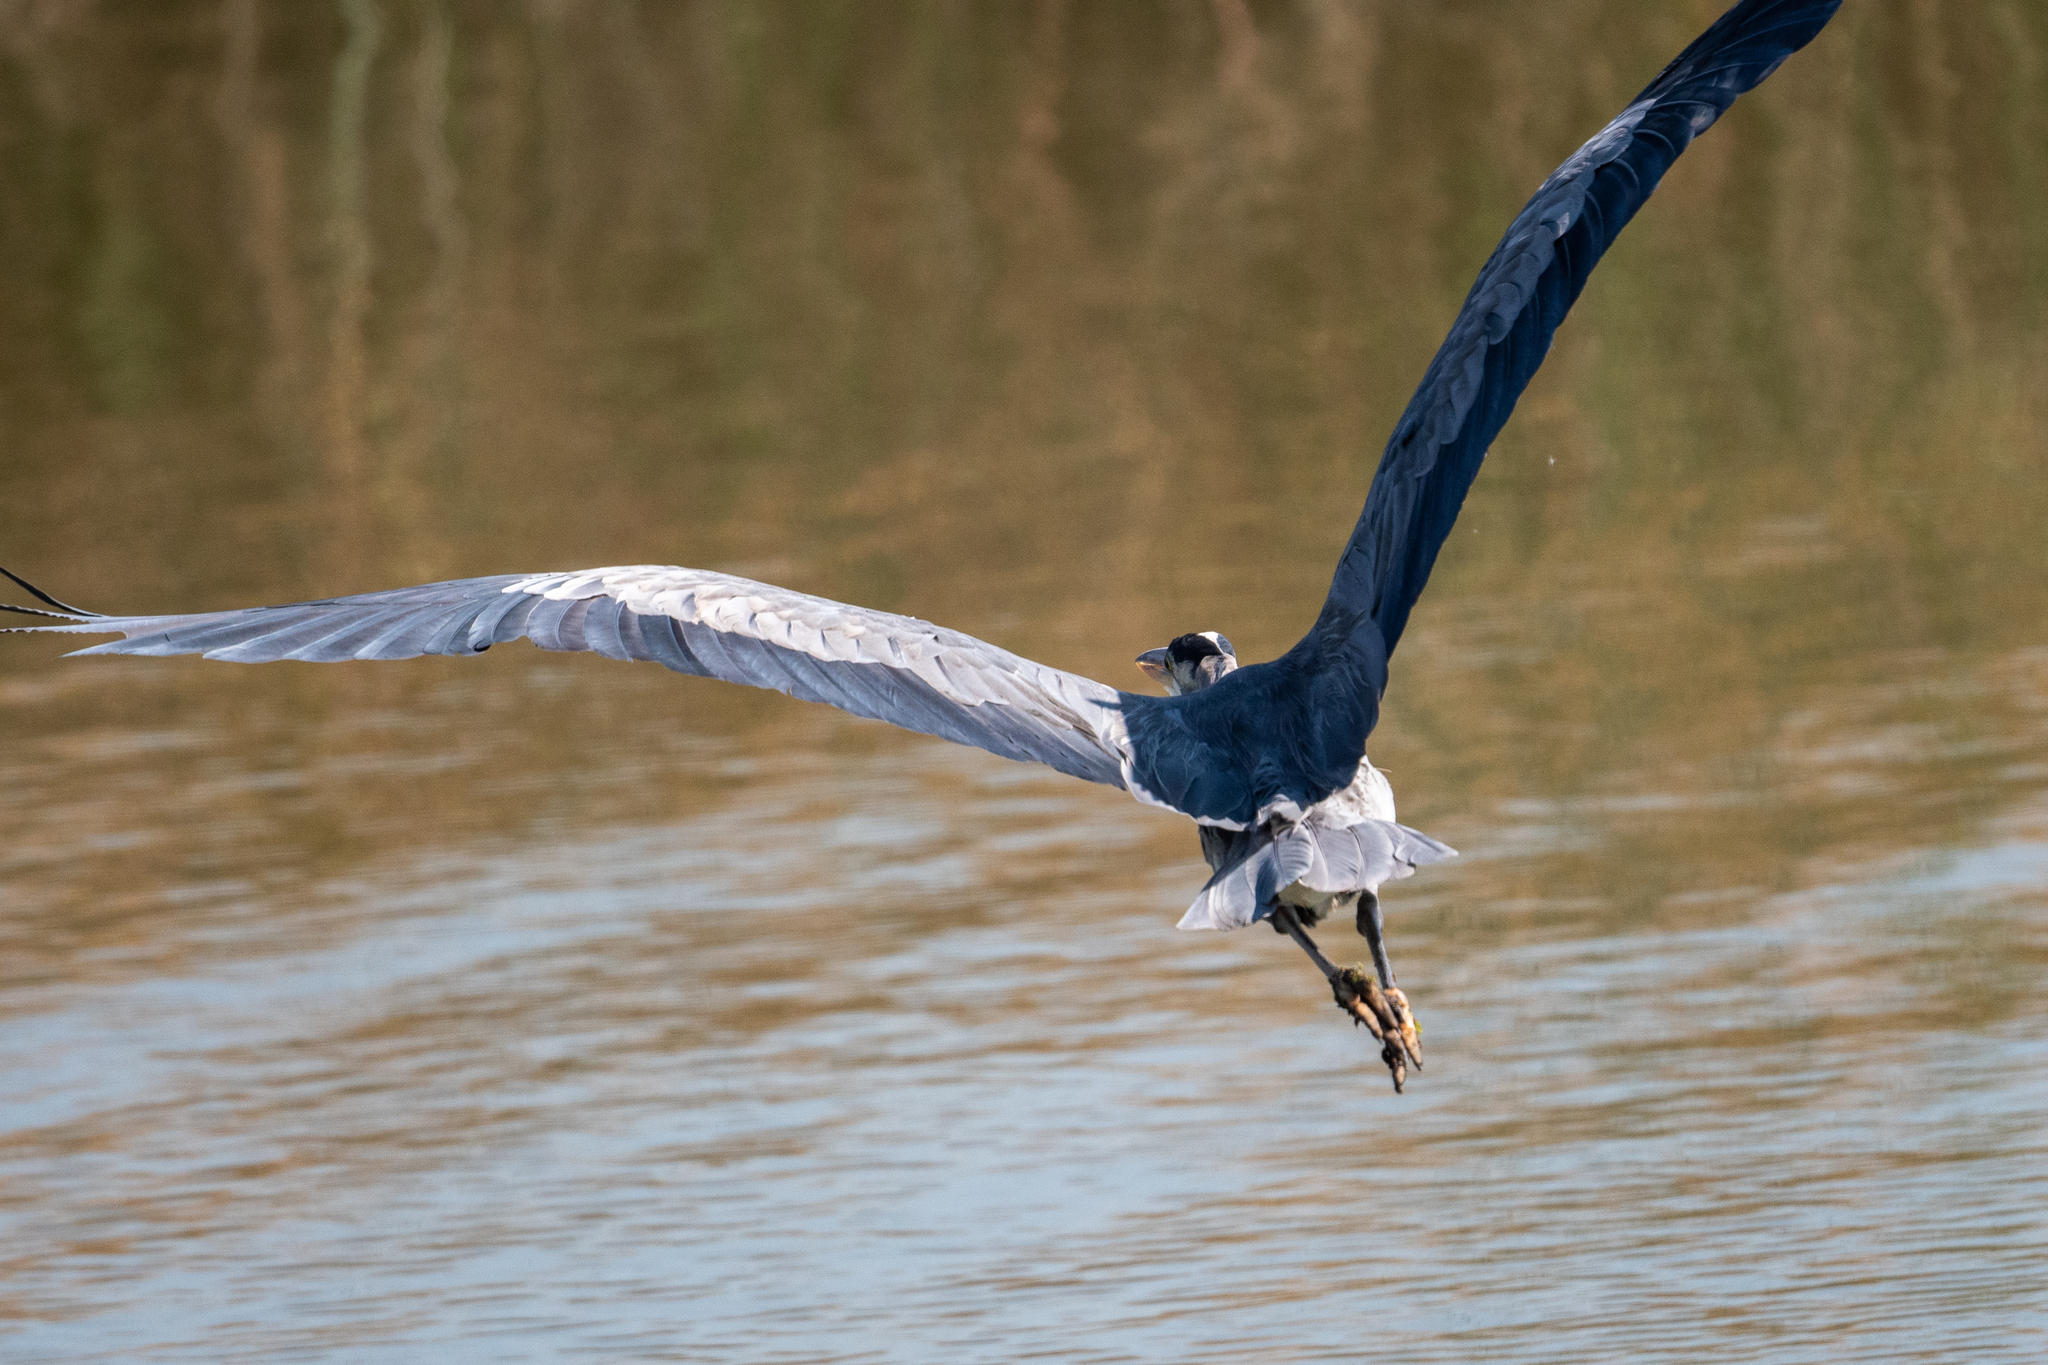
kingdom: Animalia
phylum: Chordata
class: Aves
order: Pelecaniformes
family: Ardeidae
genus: Ardea
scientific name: Ardea herodias
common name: Great blue heron
